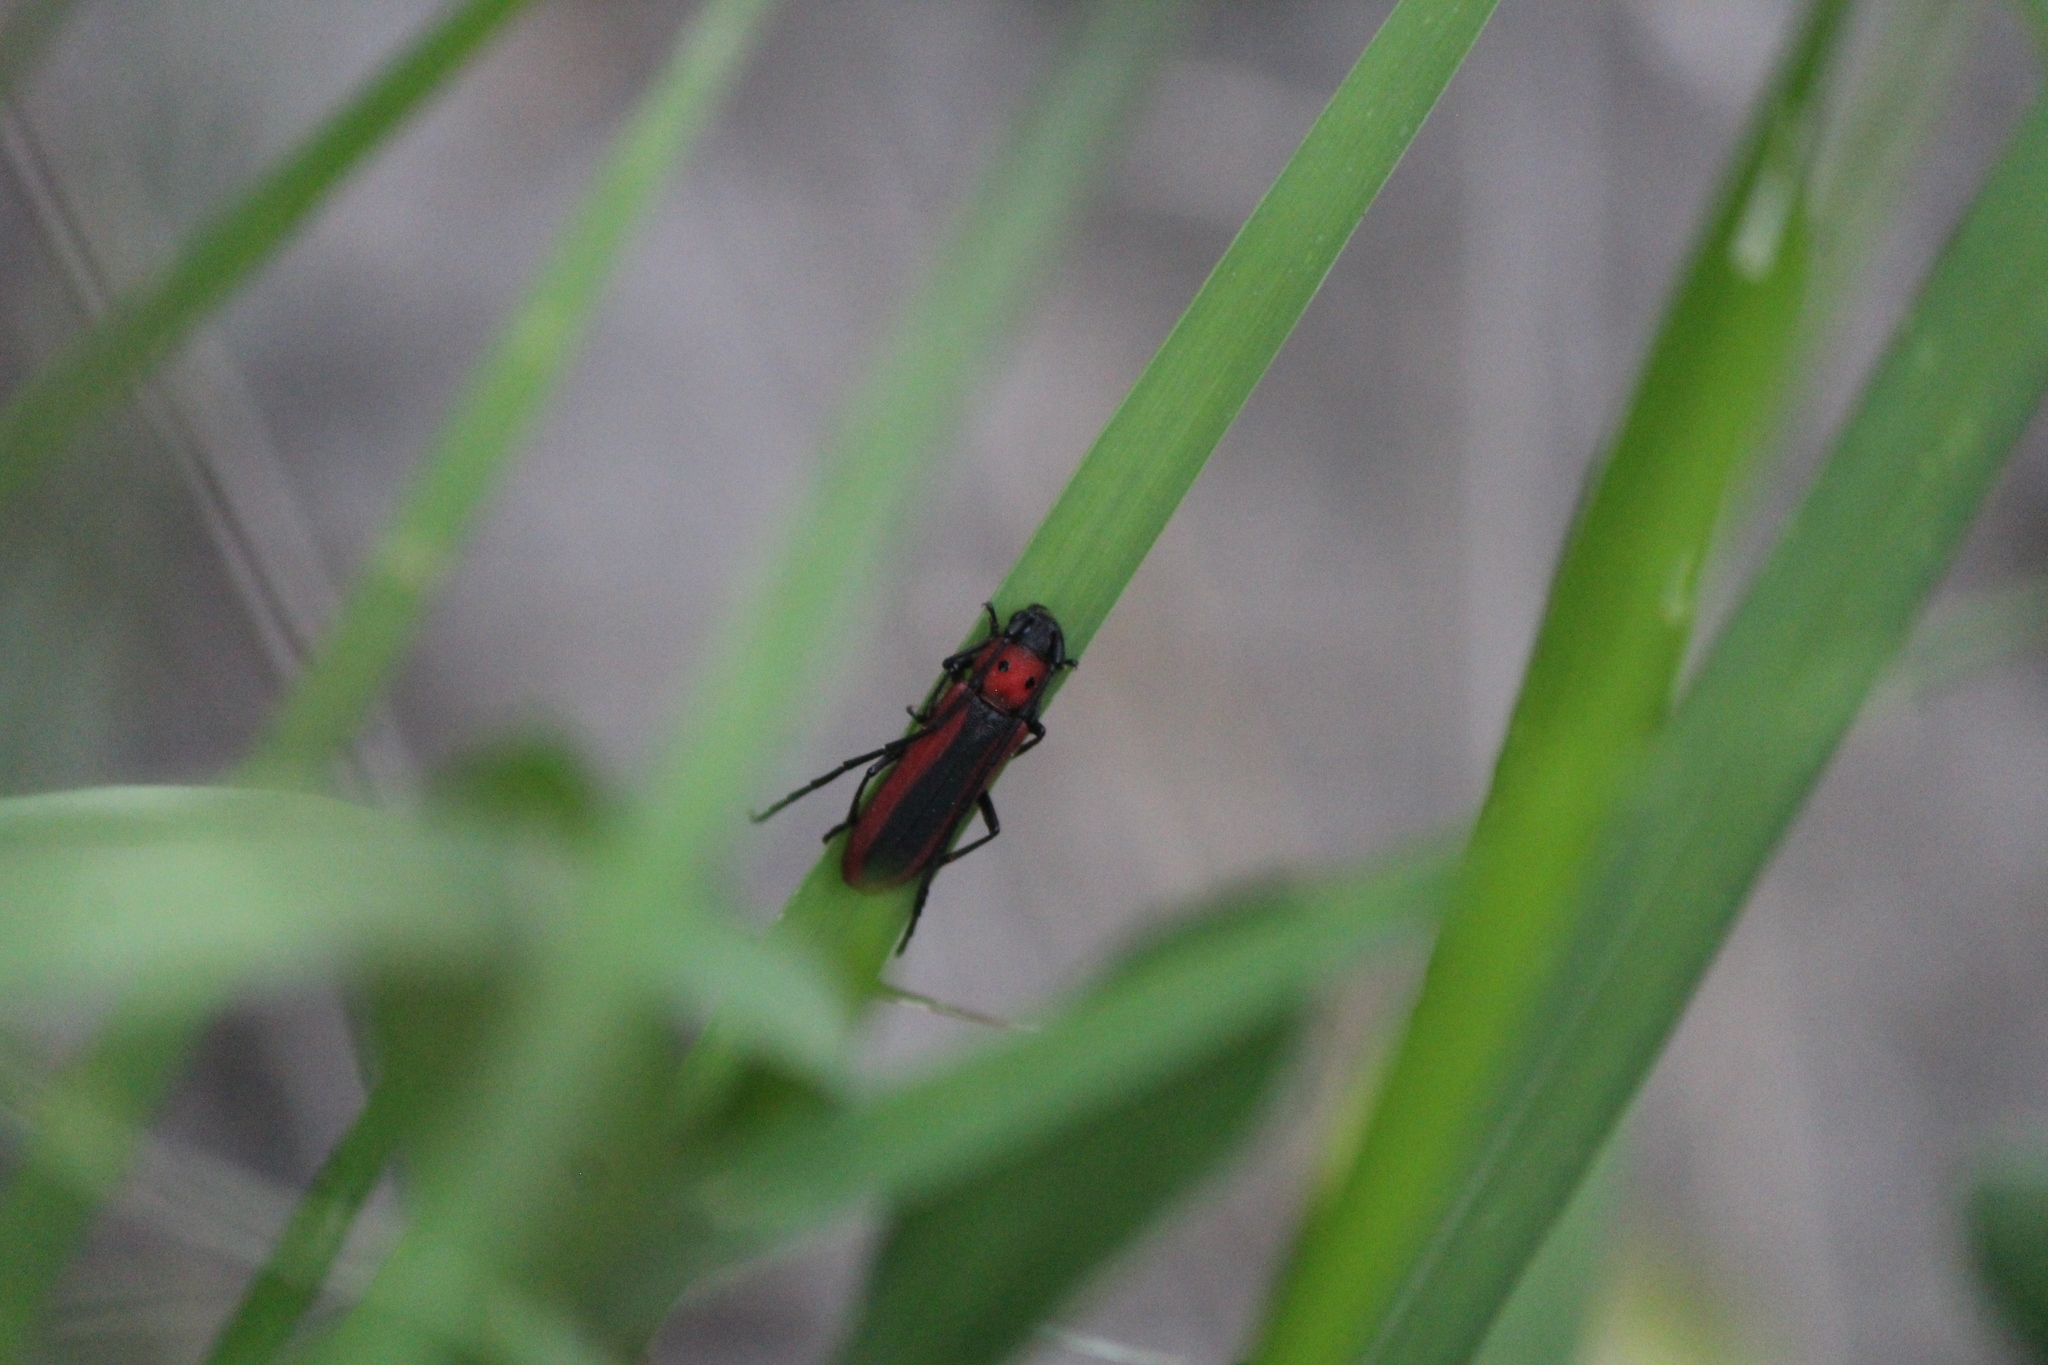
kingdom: Animalia
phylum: Arthropoda
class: Insecta
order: Coleoptera
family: Cerambycidae
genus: Tylosis
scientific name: Tylosis suturalis
